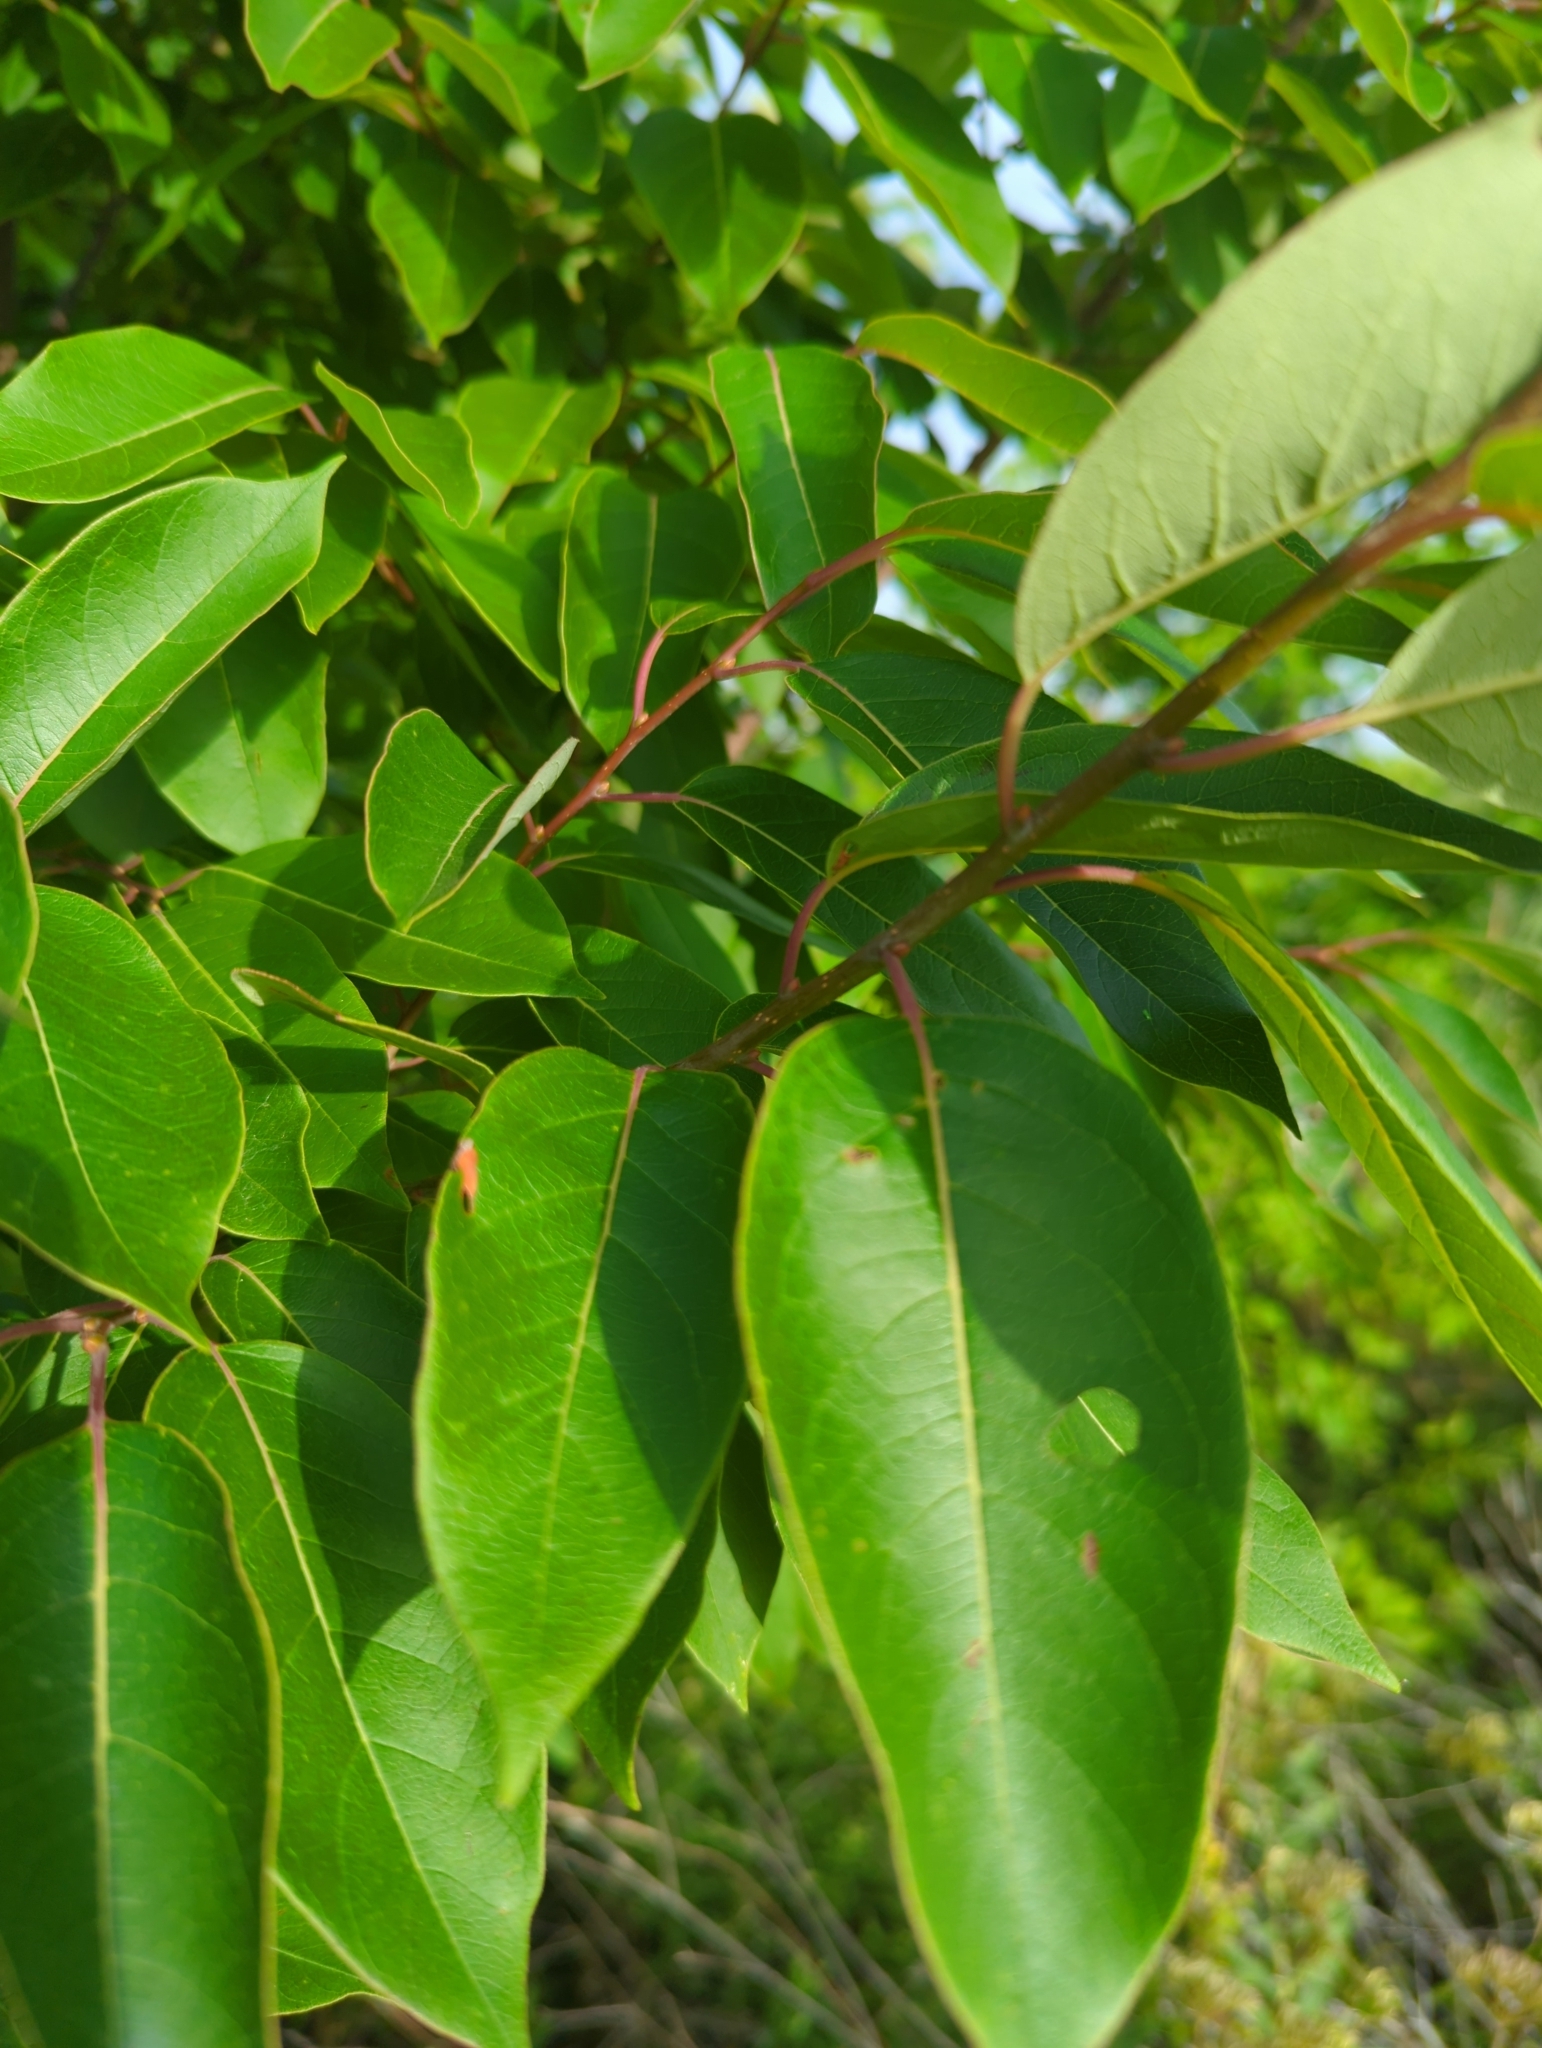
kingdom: Plantae
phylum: Tracheophyta
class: Magnoliopsida
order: Ericales
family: Ebenaceae
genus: Diospyros
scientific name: Diospyros virginiana
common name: Persimmon
